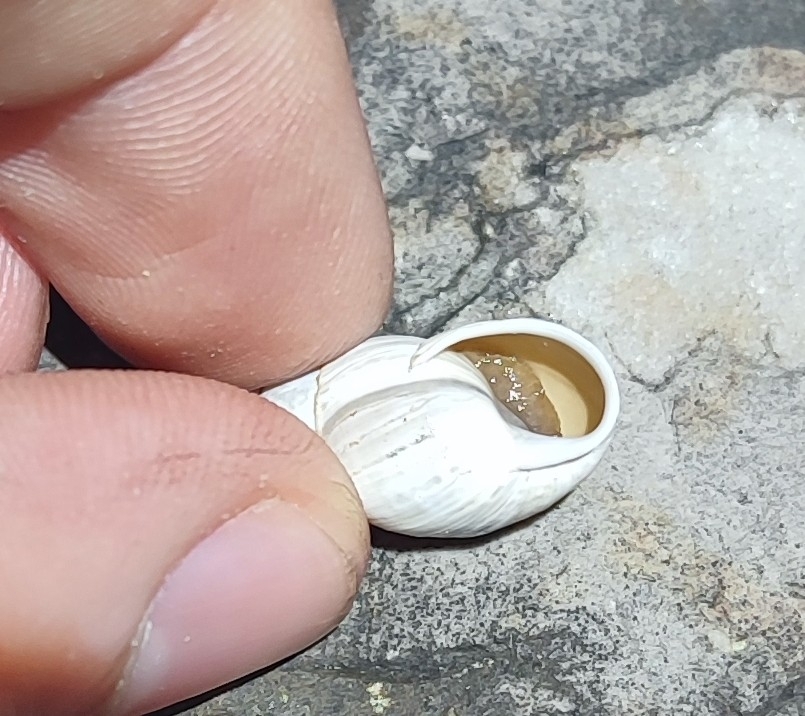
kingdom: Animalia
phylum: Mollusca
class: Gastropoda
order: Stylommatophora
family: Enidae
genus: Zebrina
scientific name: Zebrina detrita
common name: Large bulin
